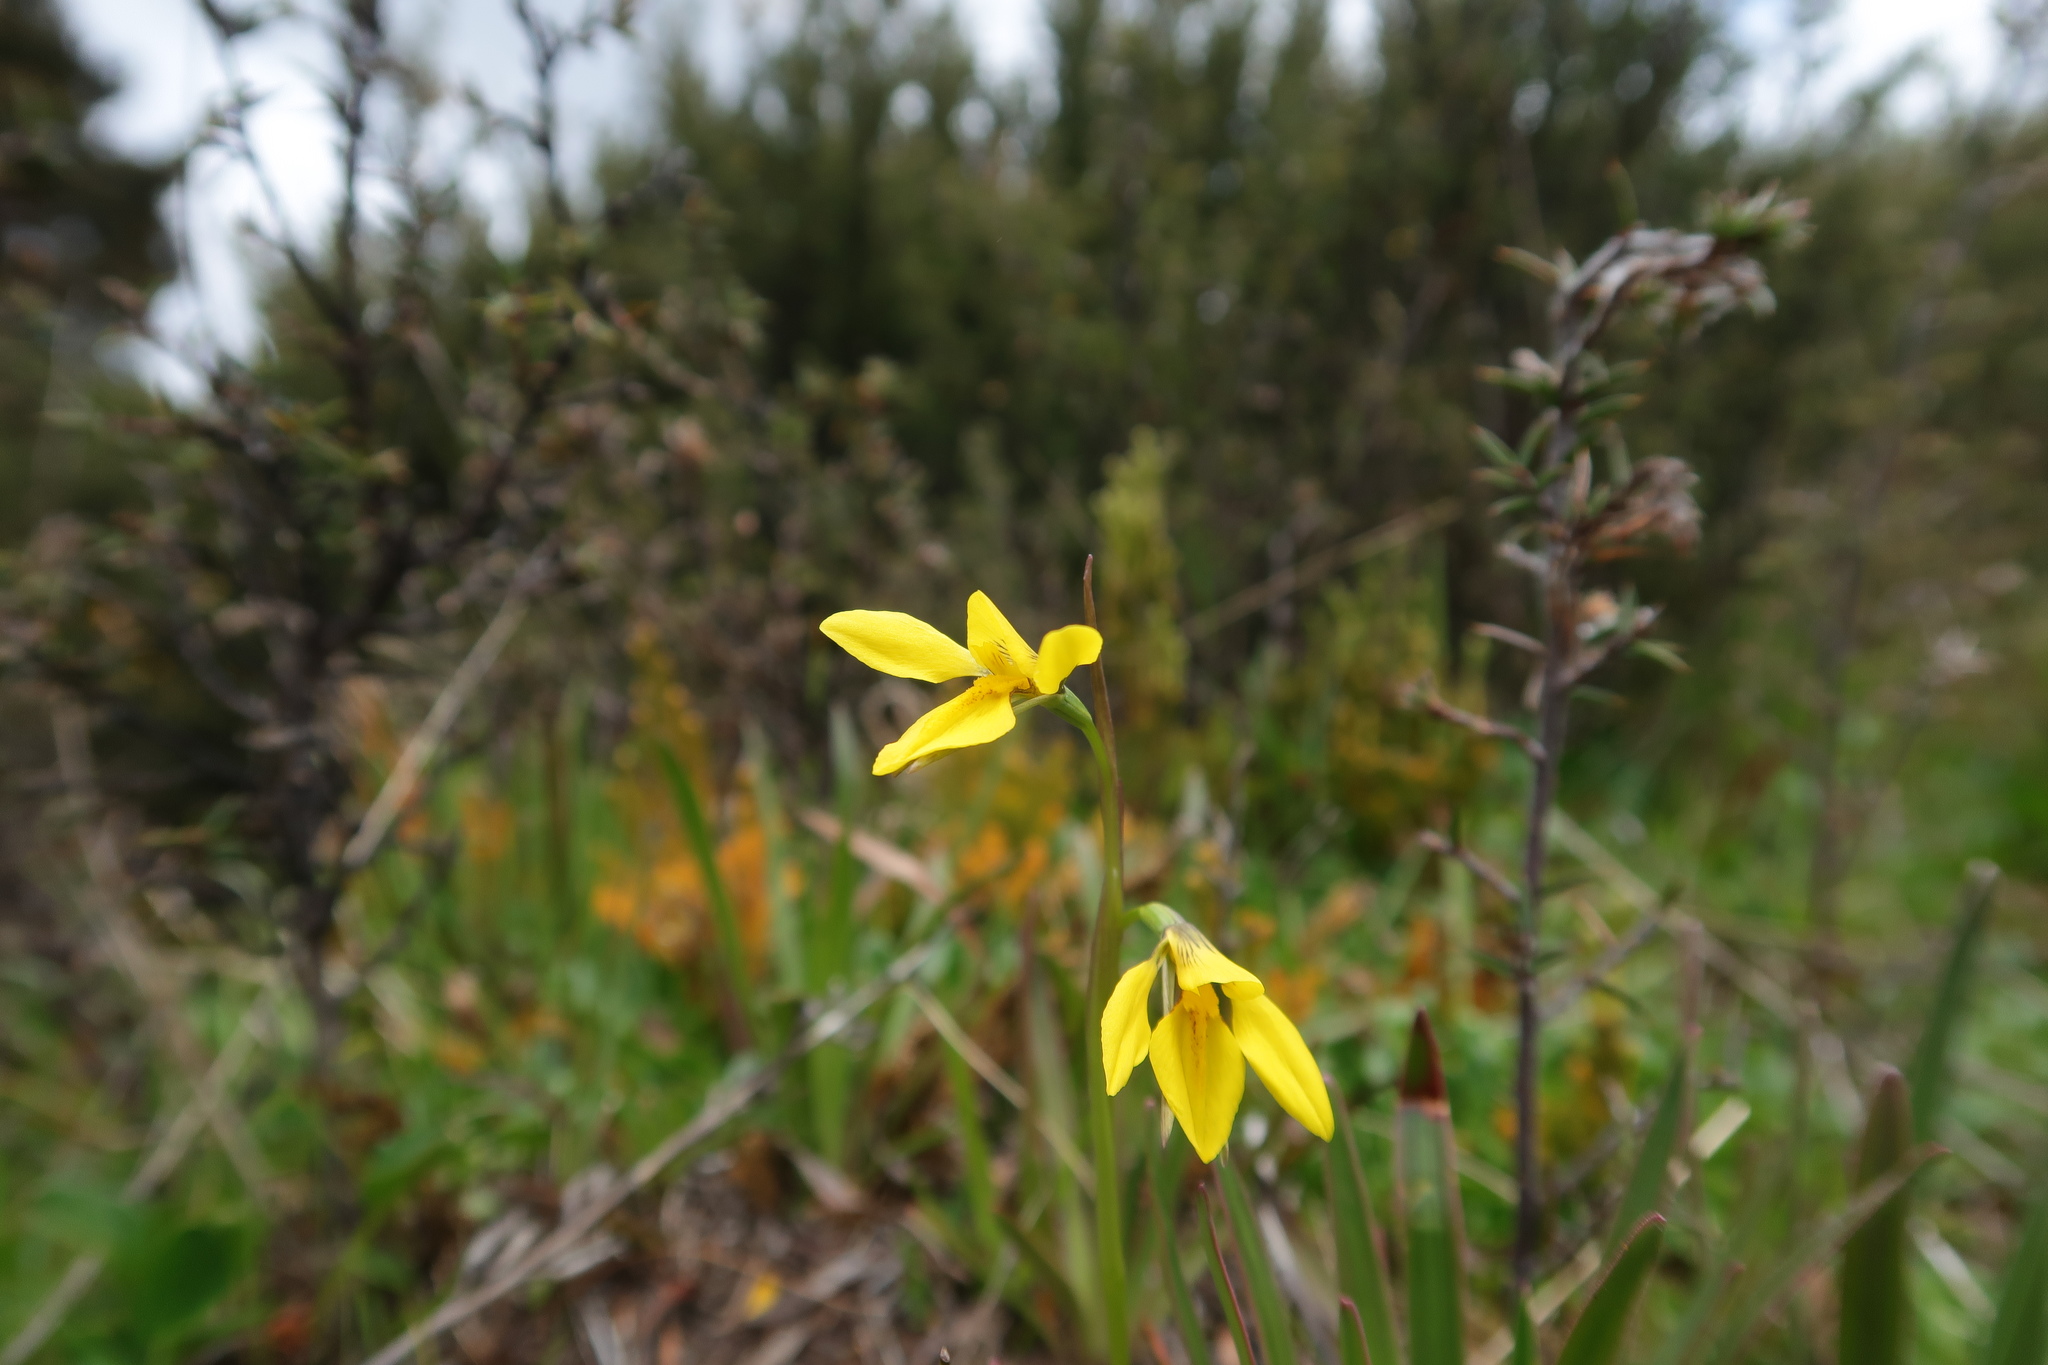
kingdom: Plantae
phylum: Tracheophyta
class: Liliopsida
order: Asparagales
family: Orchidaceae
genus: Diuris
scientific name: Diuris monticola
